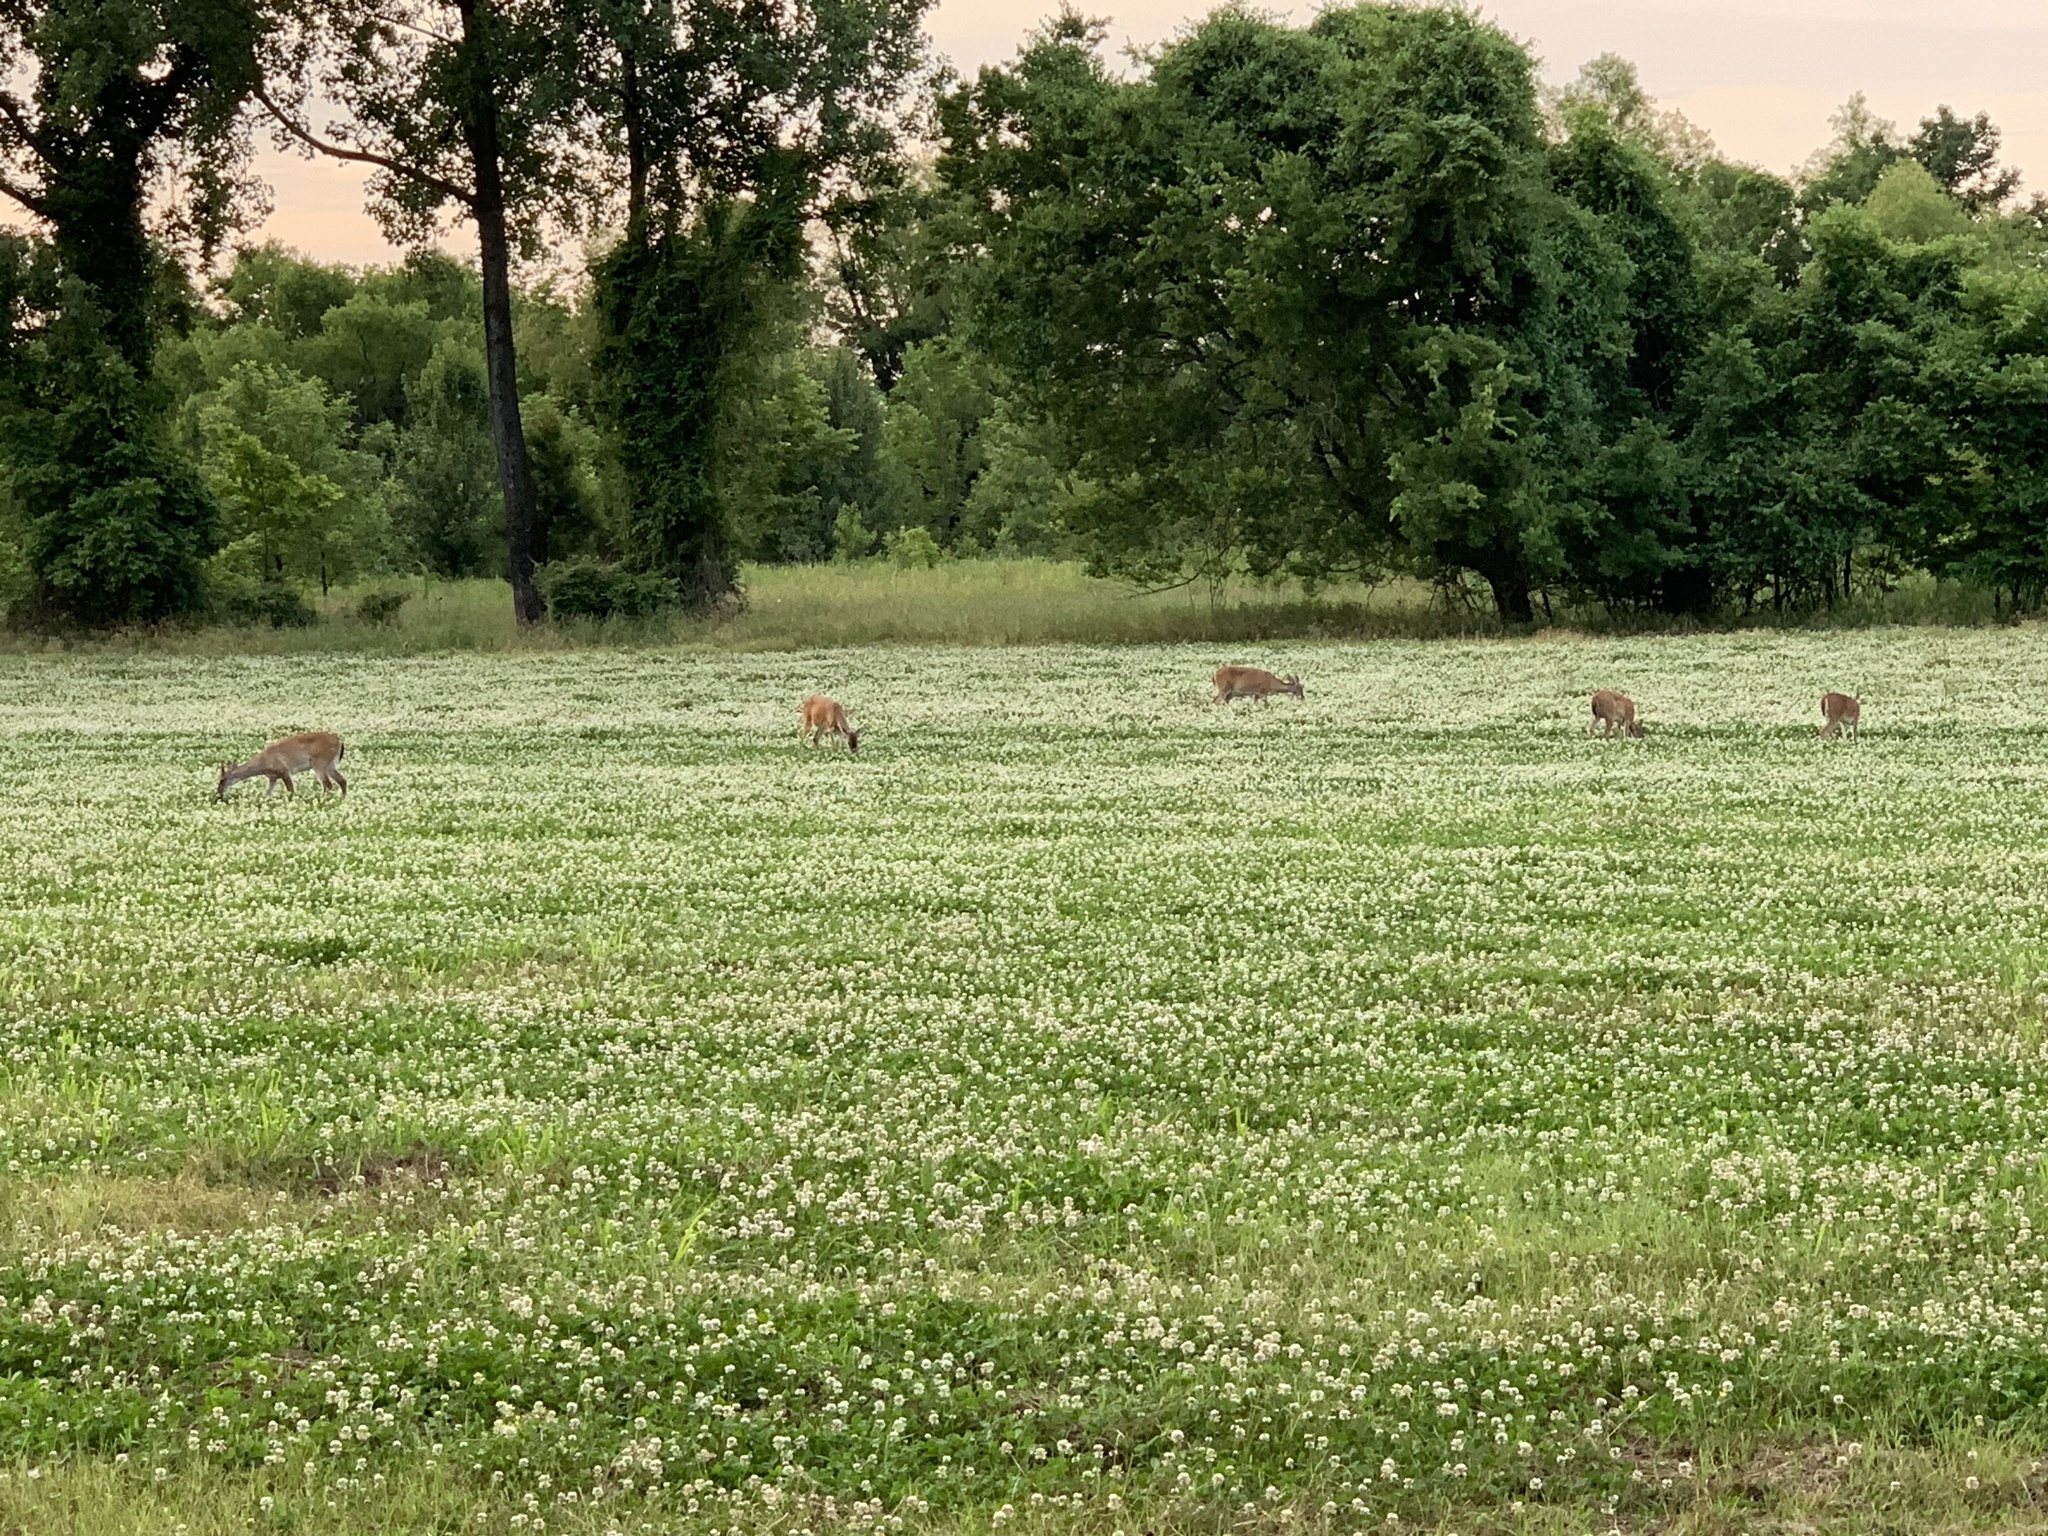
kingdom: Animalia
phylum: Chordata
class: Mammalia
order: Artiodactyla
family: Cervidae
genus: Odocoileus
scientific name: Odocoileus virginianus
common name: White-tailed deer
